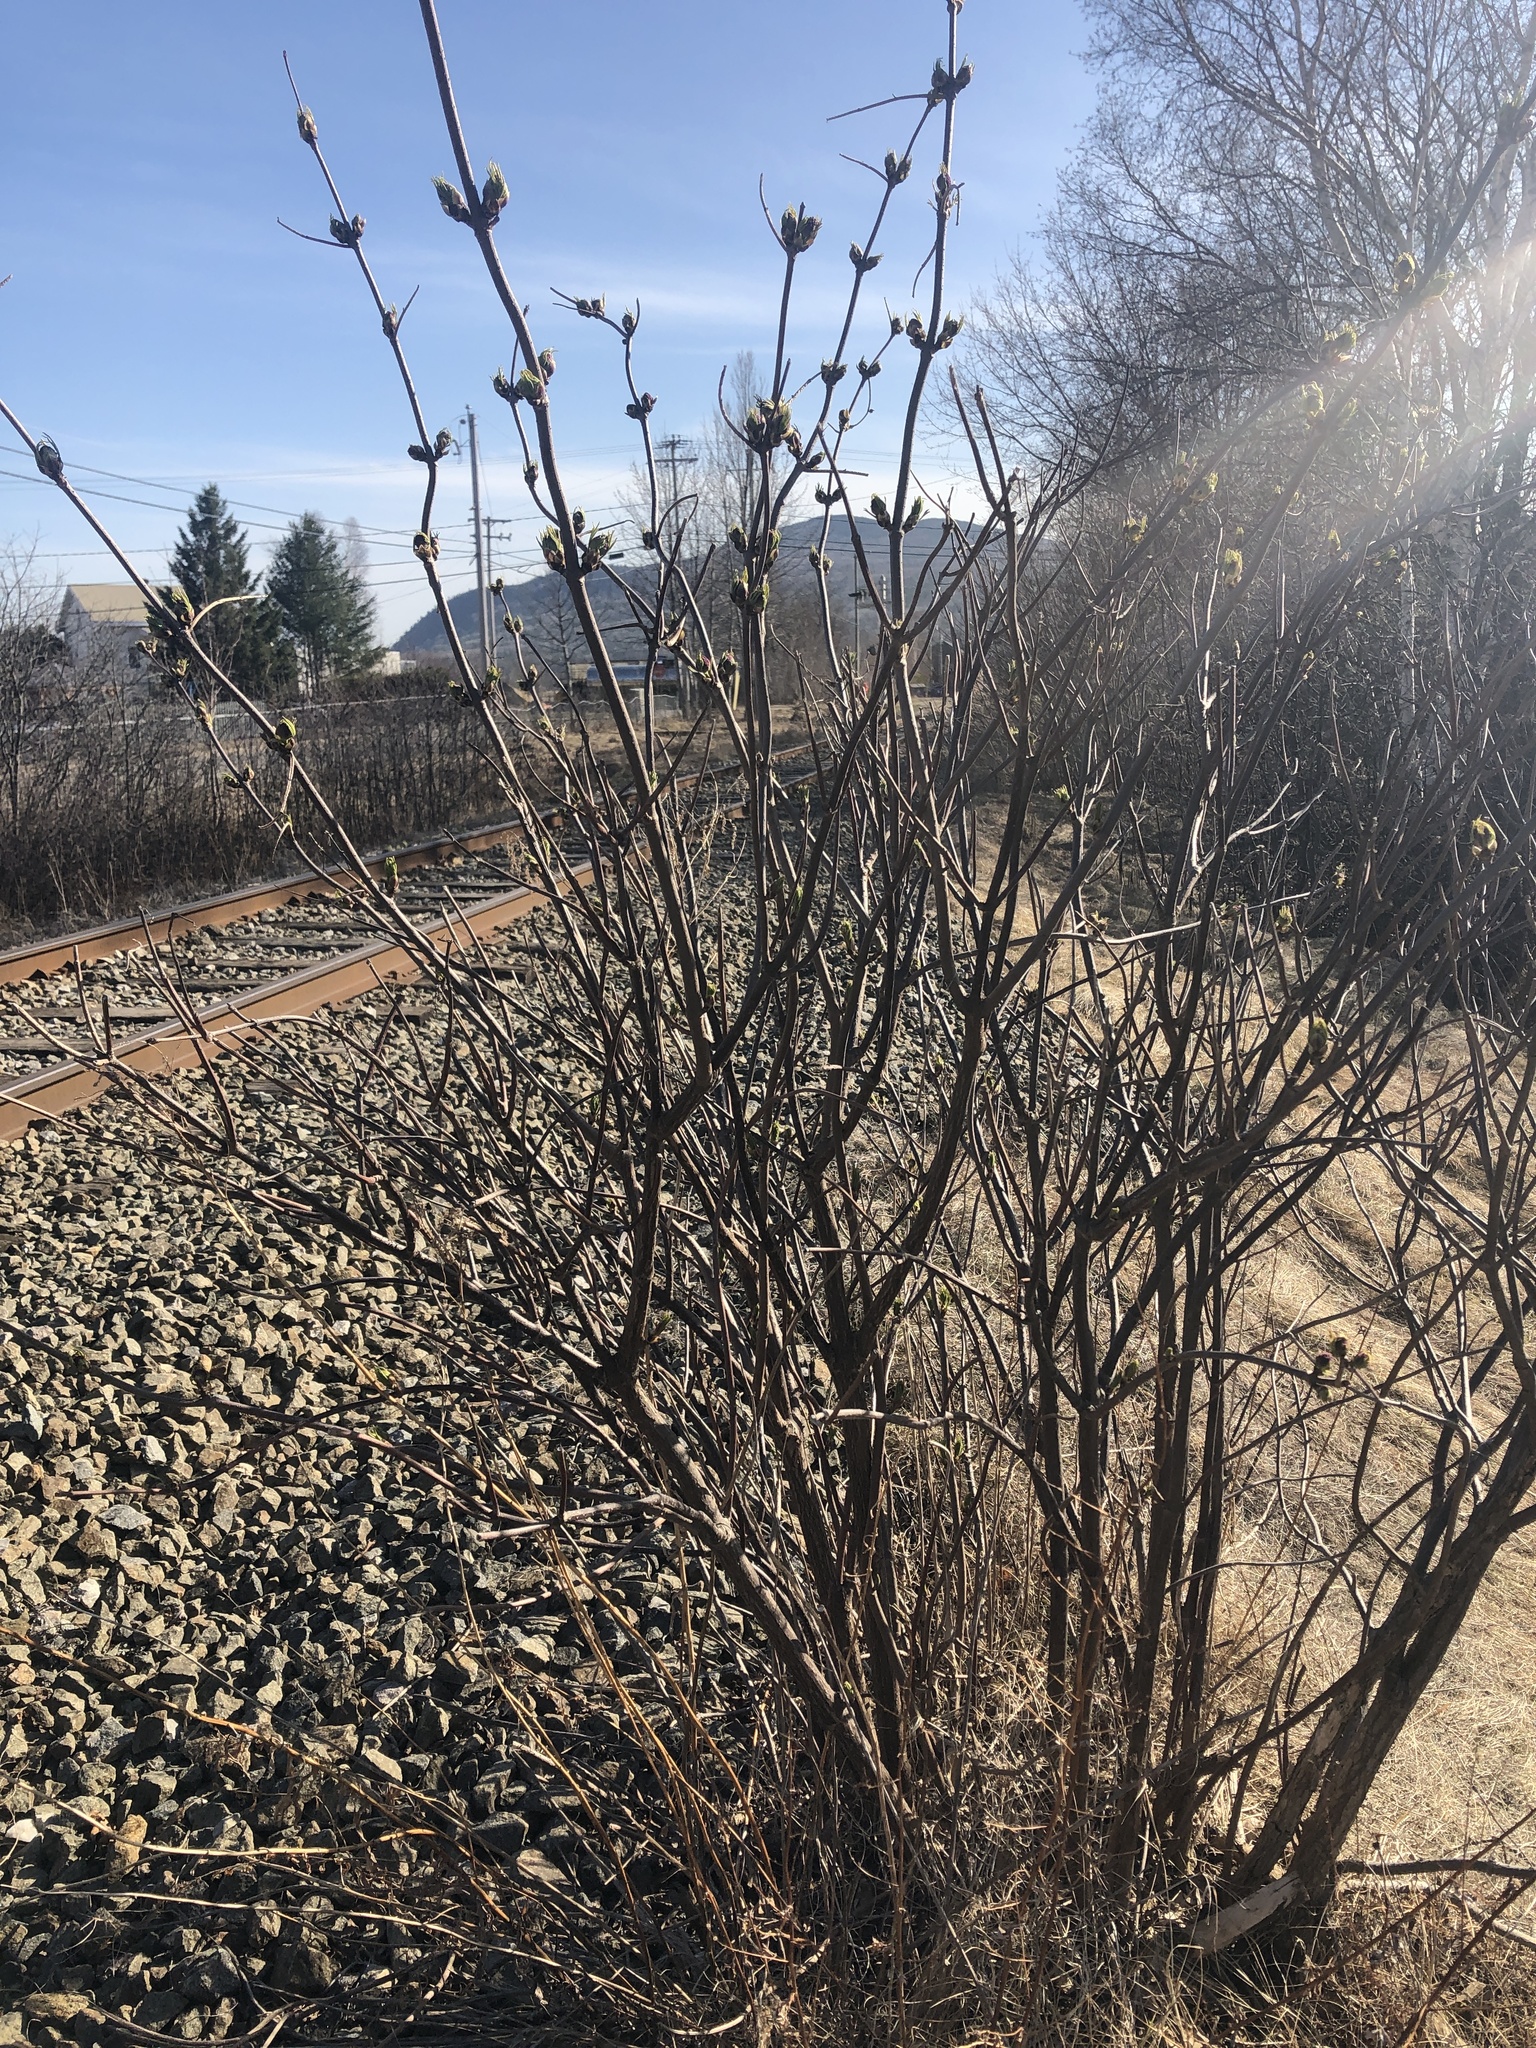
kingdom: Plantae
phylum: Tracheophyta
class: Magnoliopsida
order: Dipsacales
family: Viburnaceae
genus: Sambucus
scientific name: Sambucus racemosa
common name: Red-berried elder
